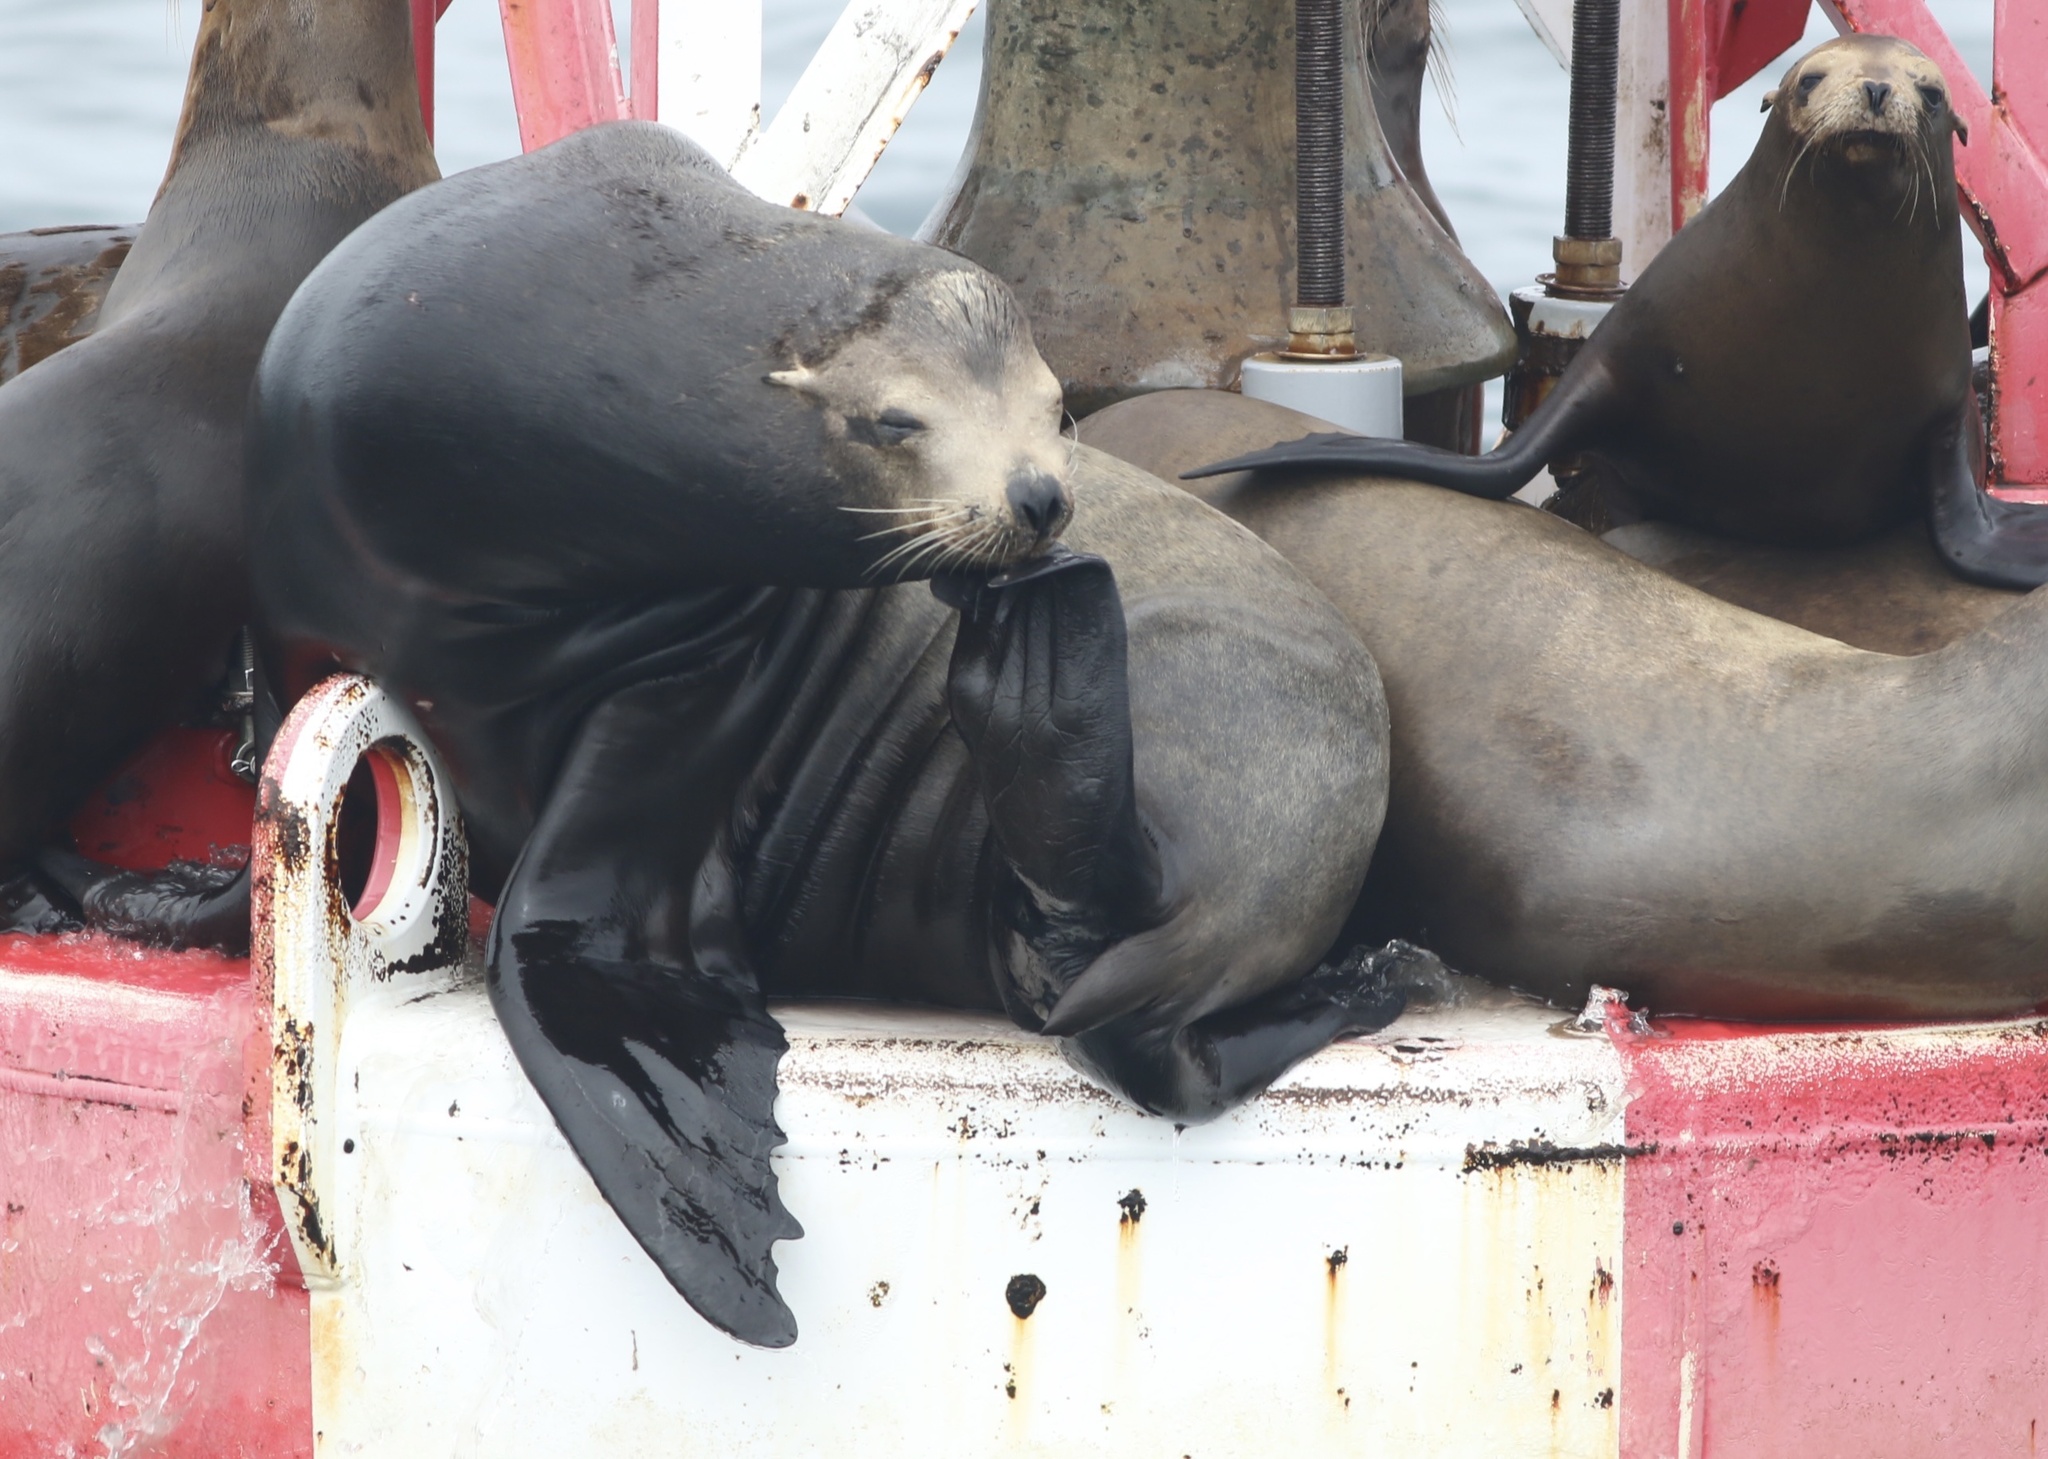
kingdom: Animalia
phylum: Chordata
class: Mammalia
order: Carnivora
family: Otariidae
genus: Zalophus
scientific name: Zalophus californianus
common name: California sea lion
